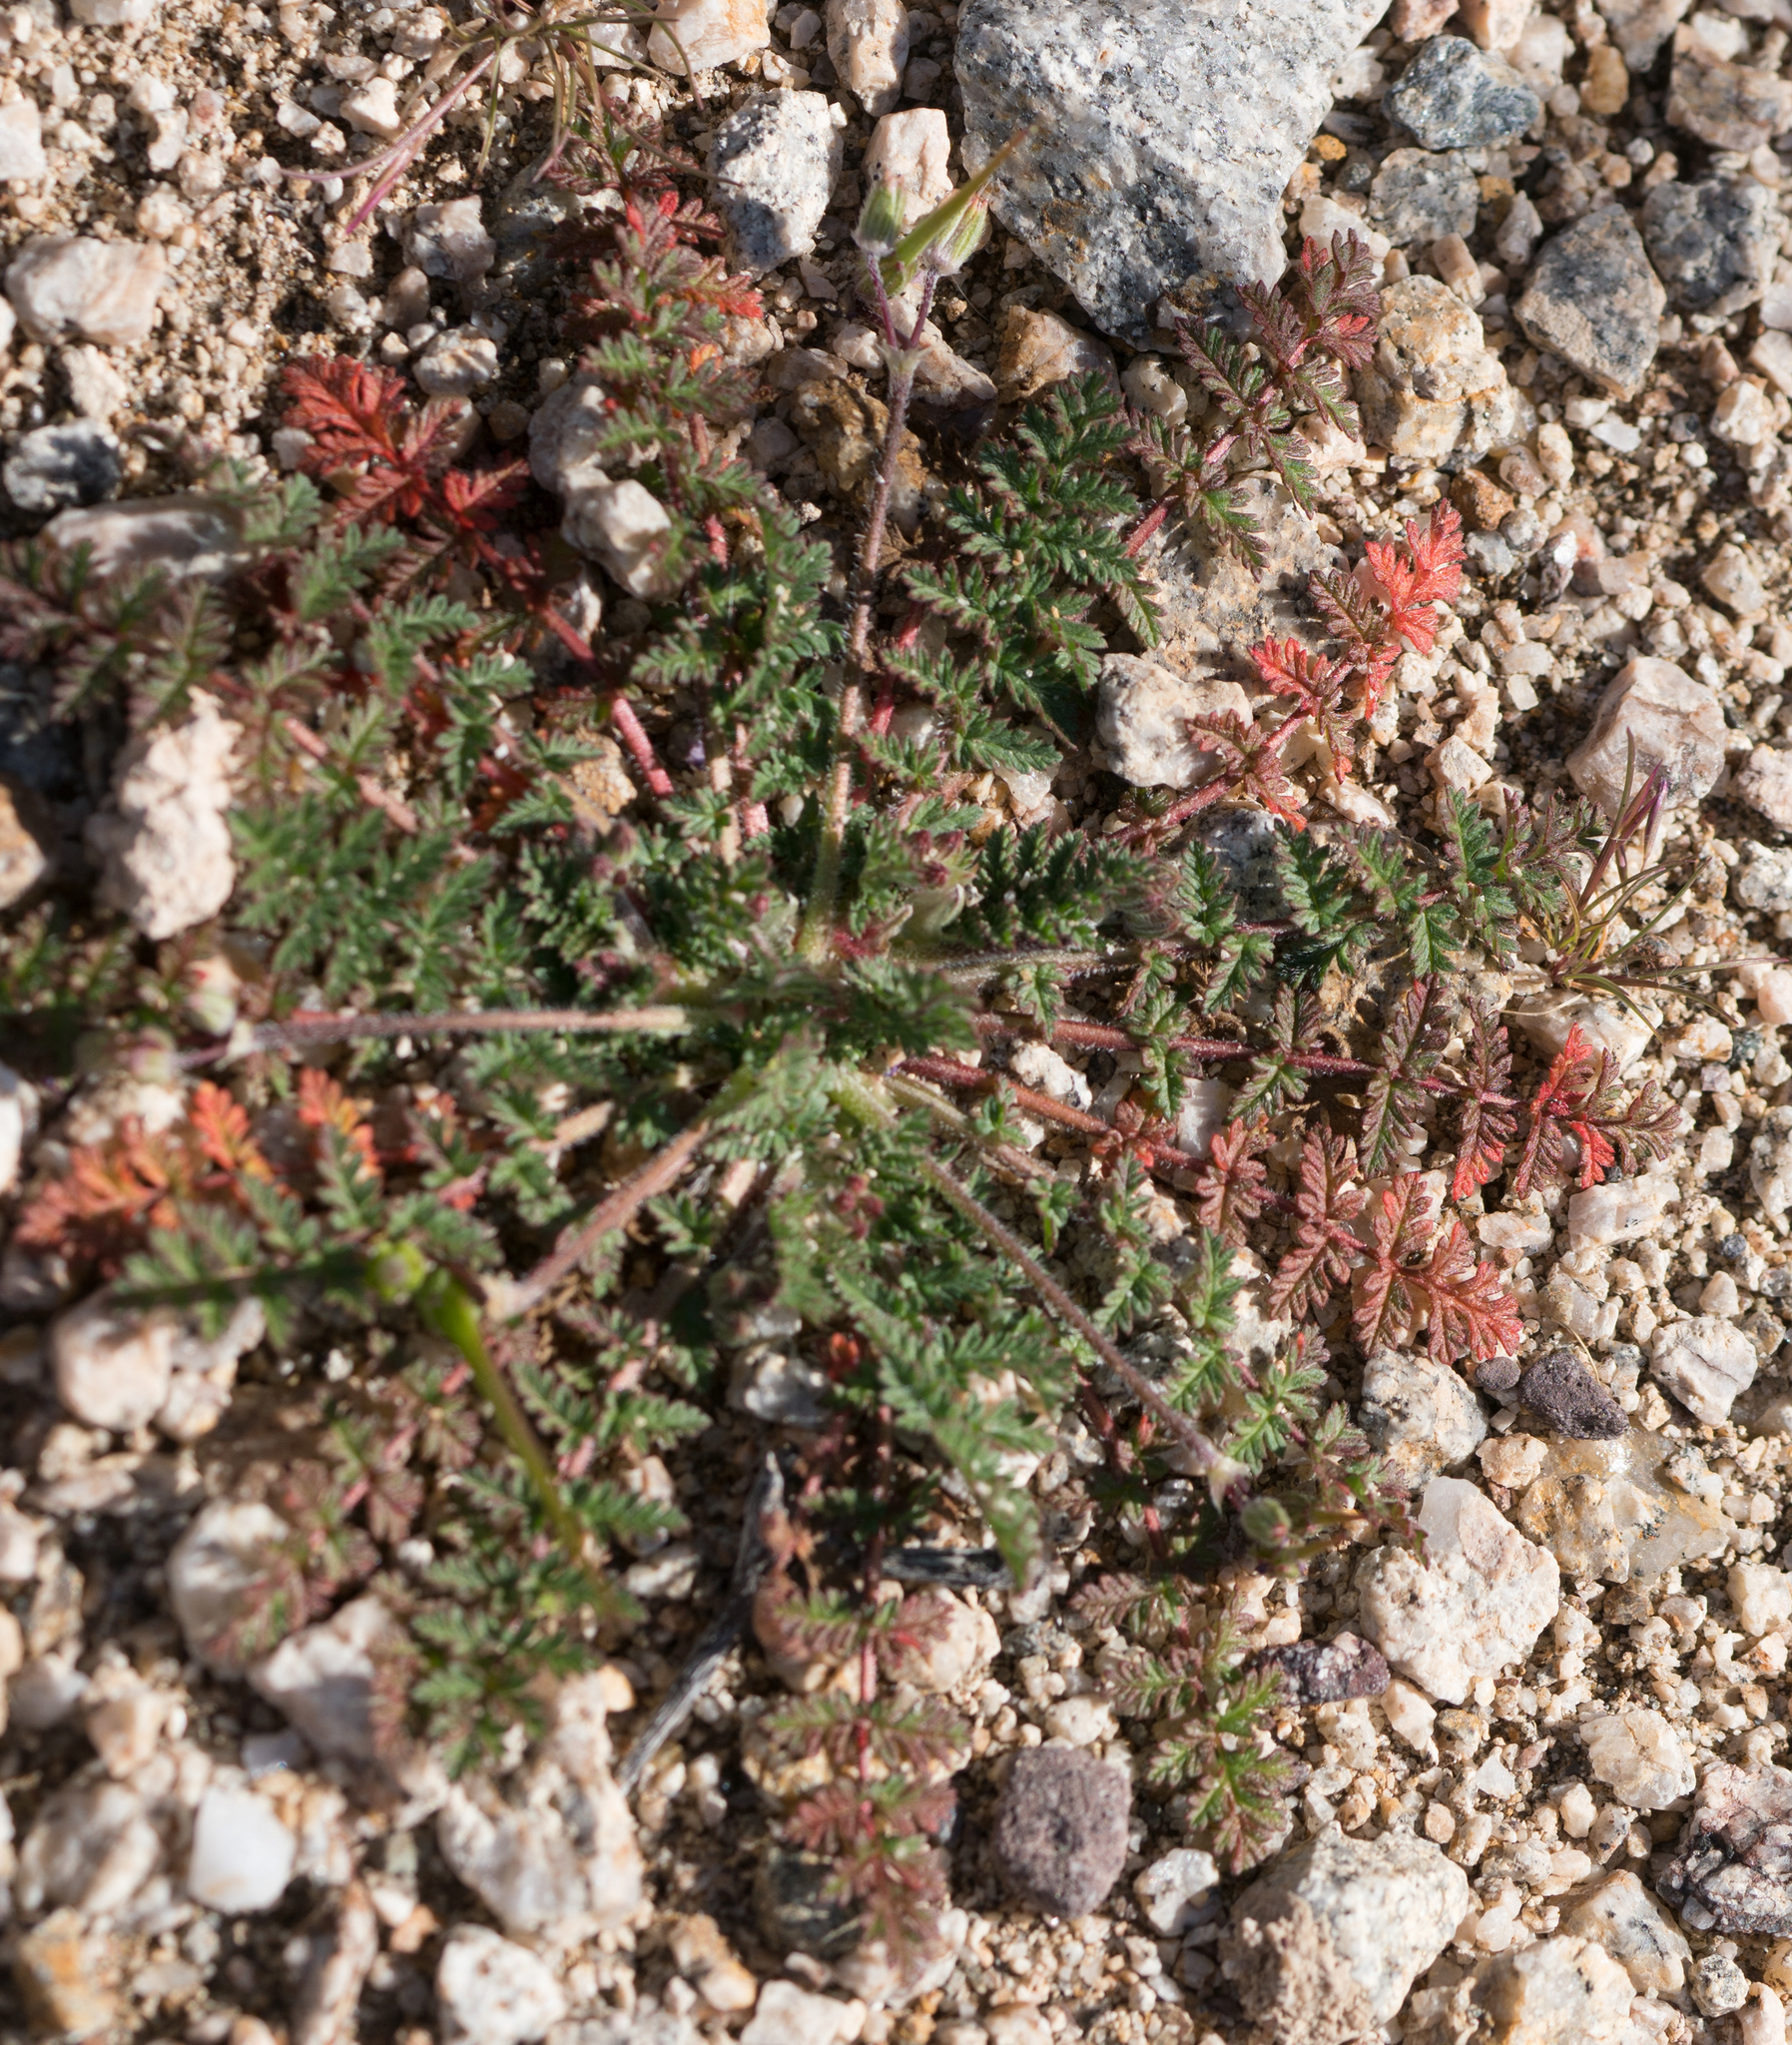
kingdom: Plantae
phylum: Tracheophyta
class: Magnoliopsida
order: Geraniales
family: Geraniaceae
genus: Erodium
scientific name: Erodium cicutarium
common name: Common stork's-bill
